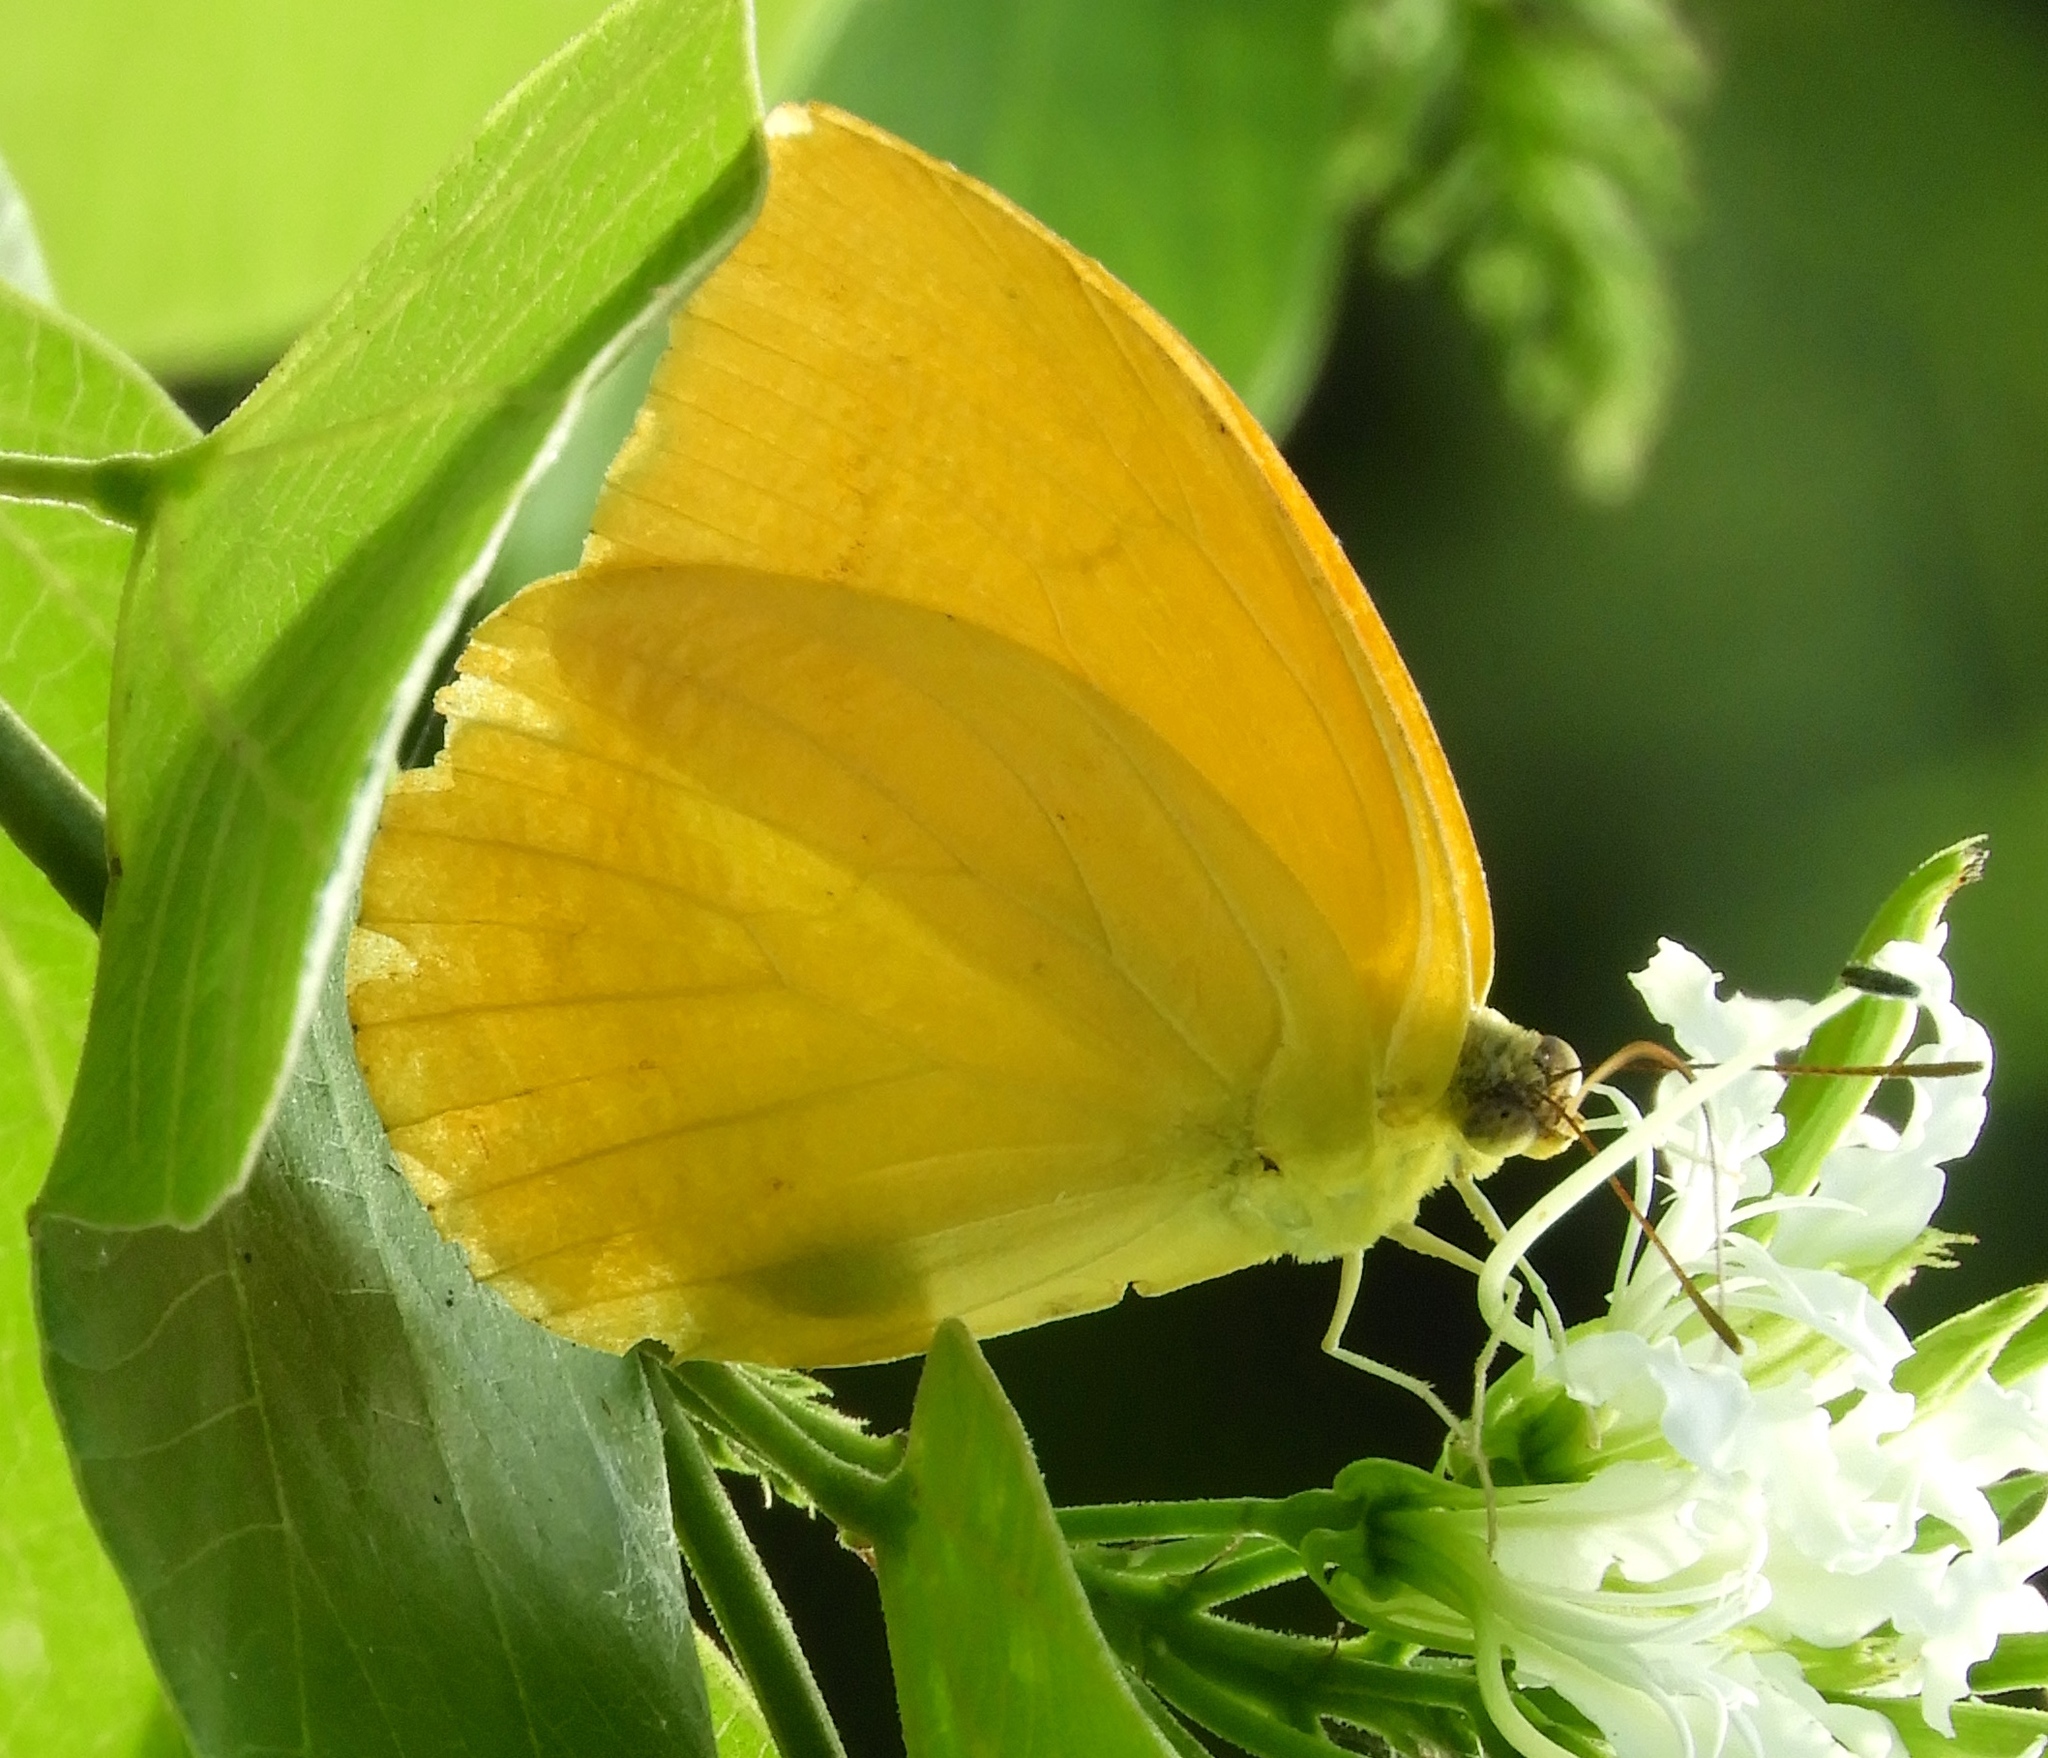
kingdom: Animalia
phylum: Arthropoda
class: Insecta
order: Lepidoptera
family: Pieridae
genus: Phoebis
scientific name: Phoebis agarithe
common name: Large orange sulphur
